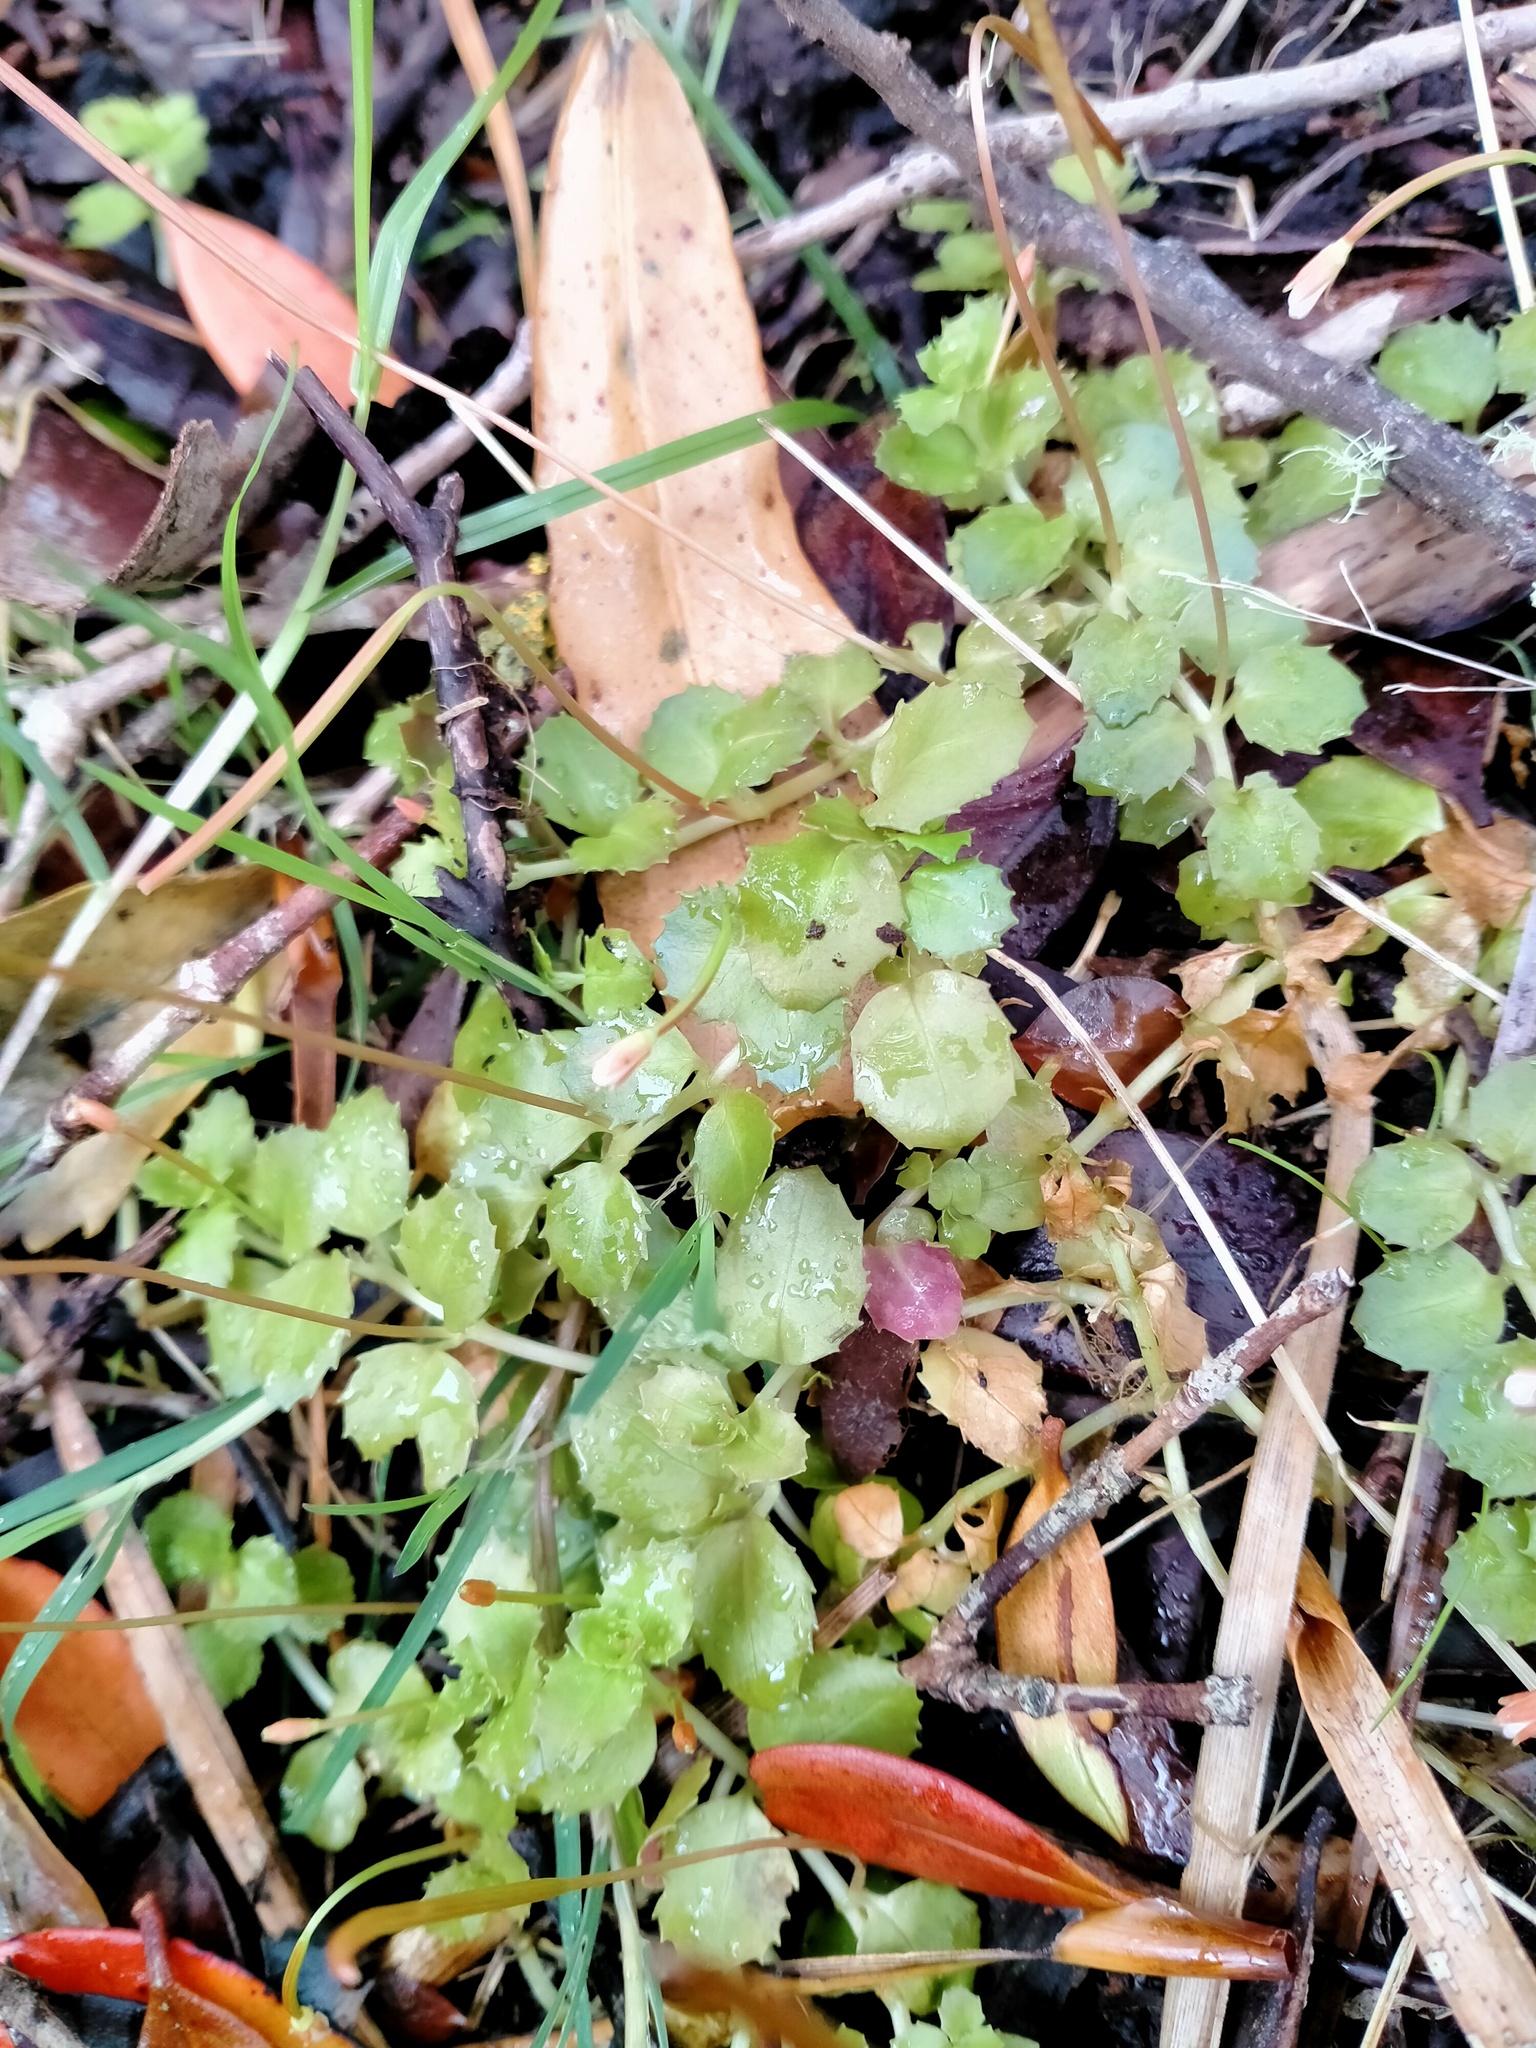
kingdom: Plantae
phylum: Tracheophyta
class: Magnoliopsida
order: Myrtales
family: Onagraceae
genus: Epilobium
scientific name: Epilobium pedunculare
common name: Rockery willowherb
